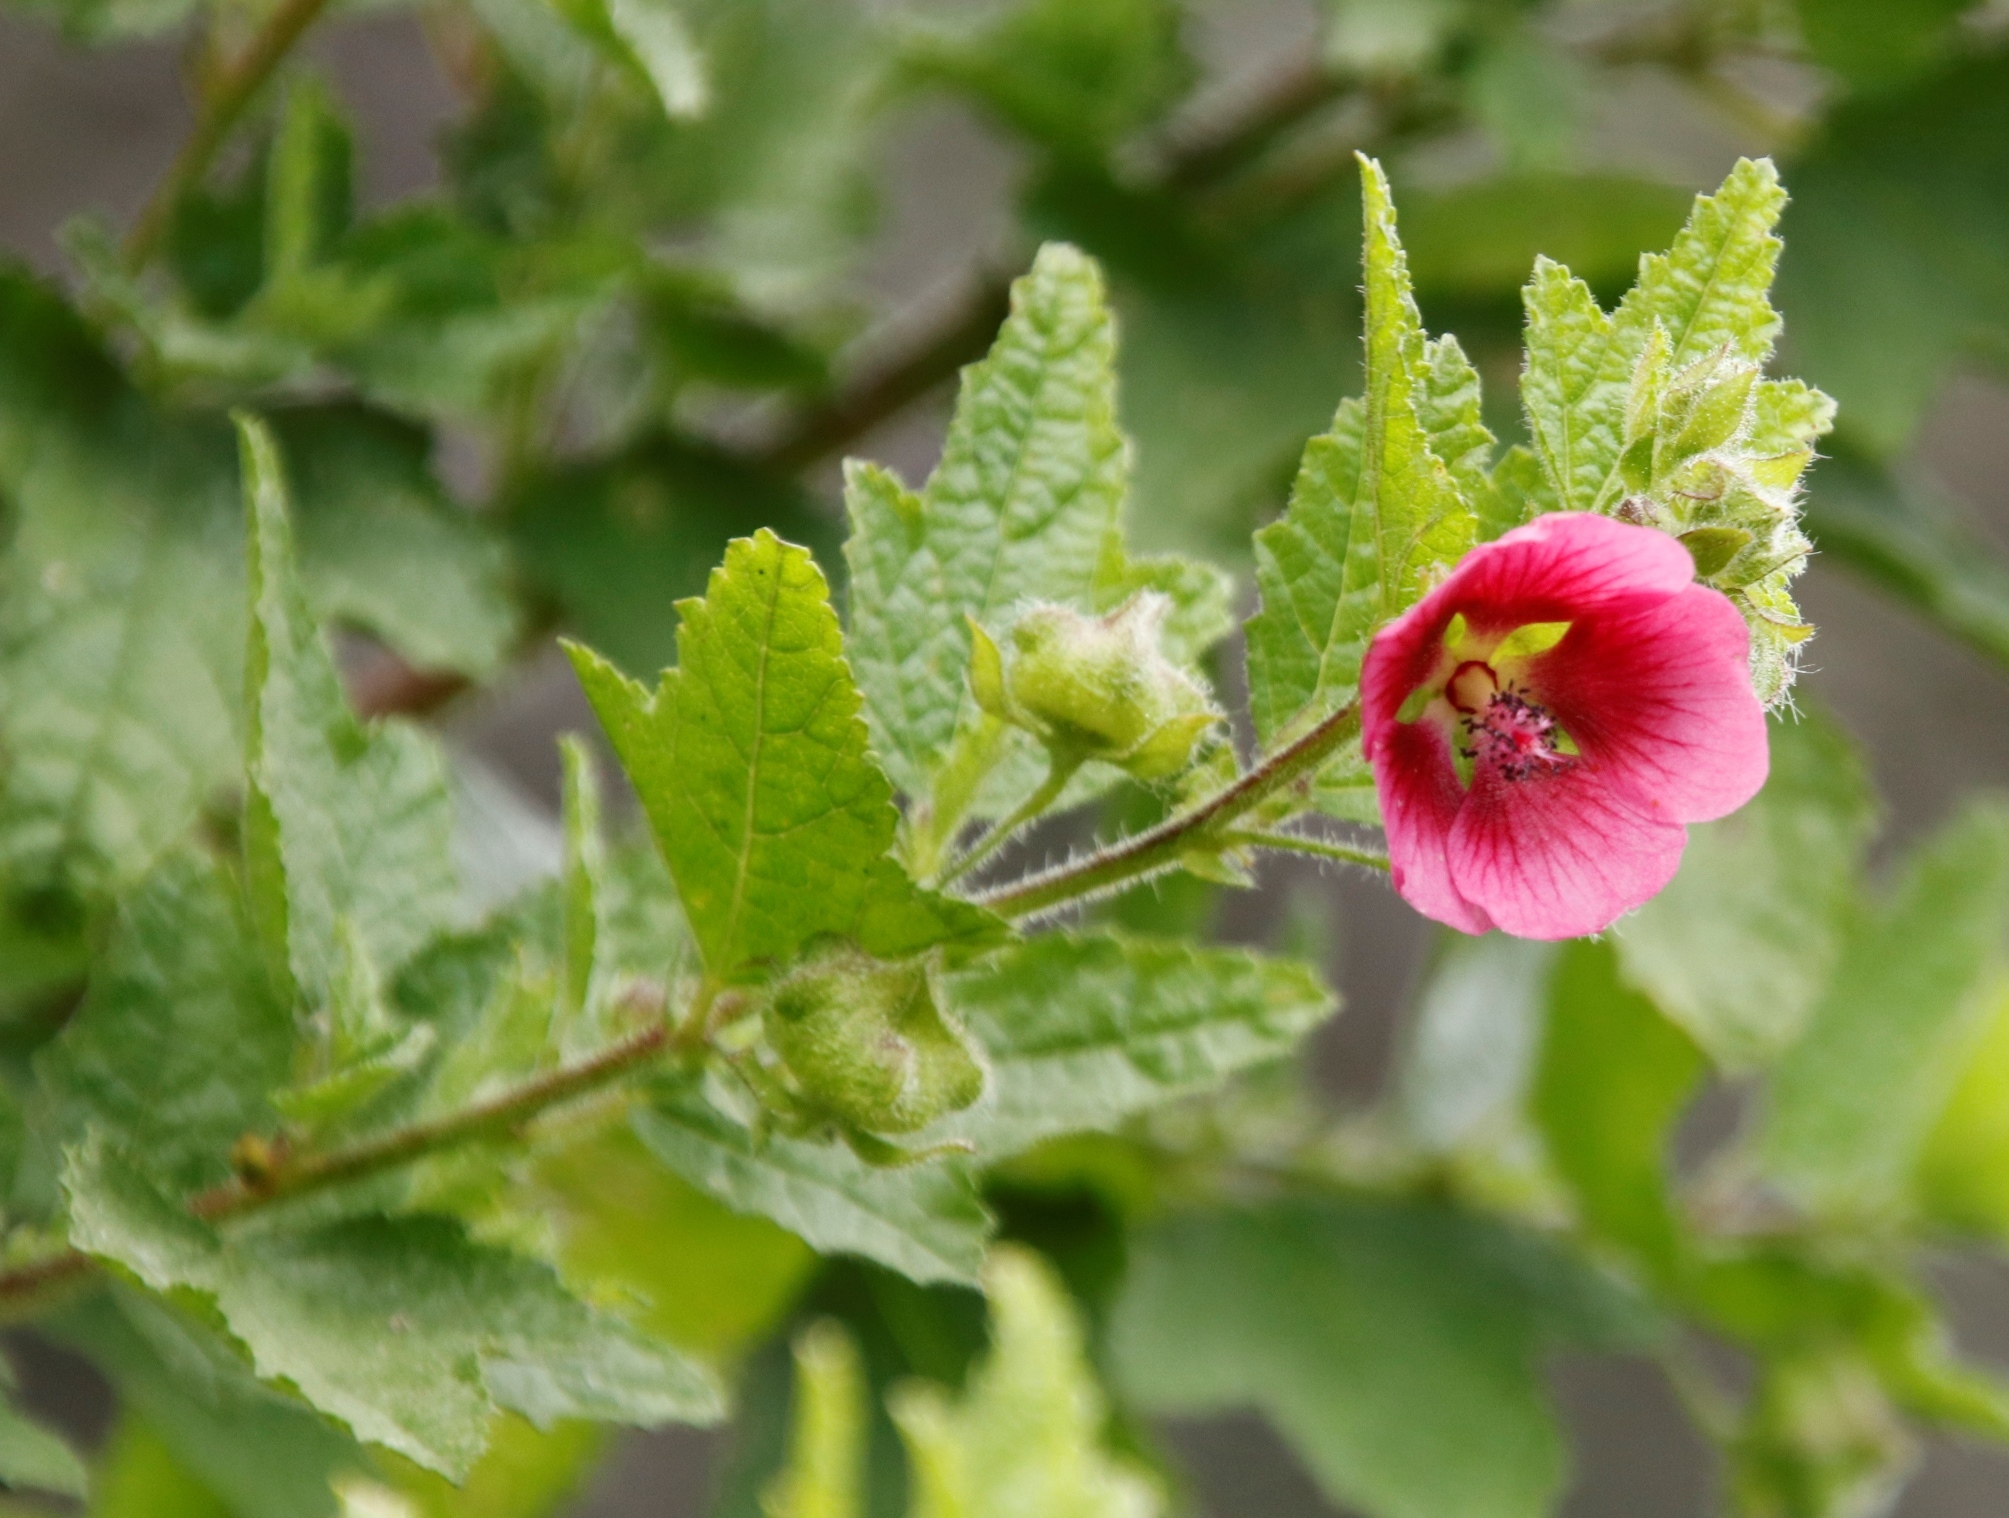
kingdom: Plantae
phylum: Tracheophyta
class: Magnoliopsida
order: Malvales
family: Malvaceae
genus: Anisodontea
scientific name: Anisodontea scabrosa
